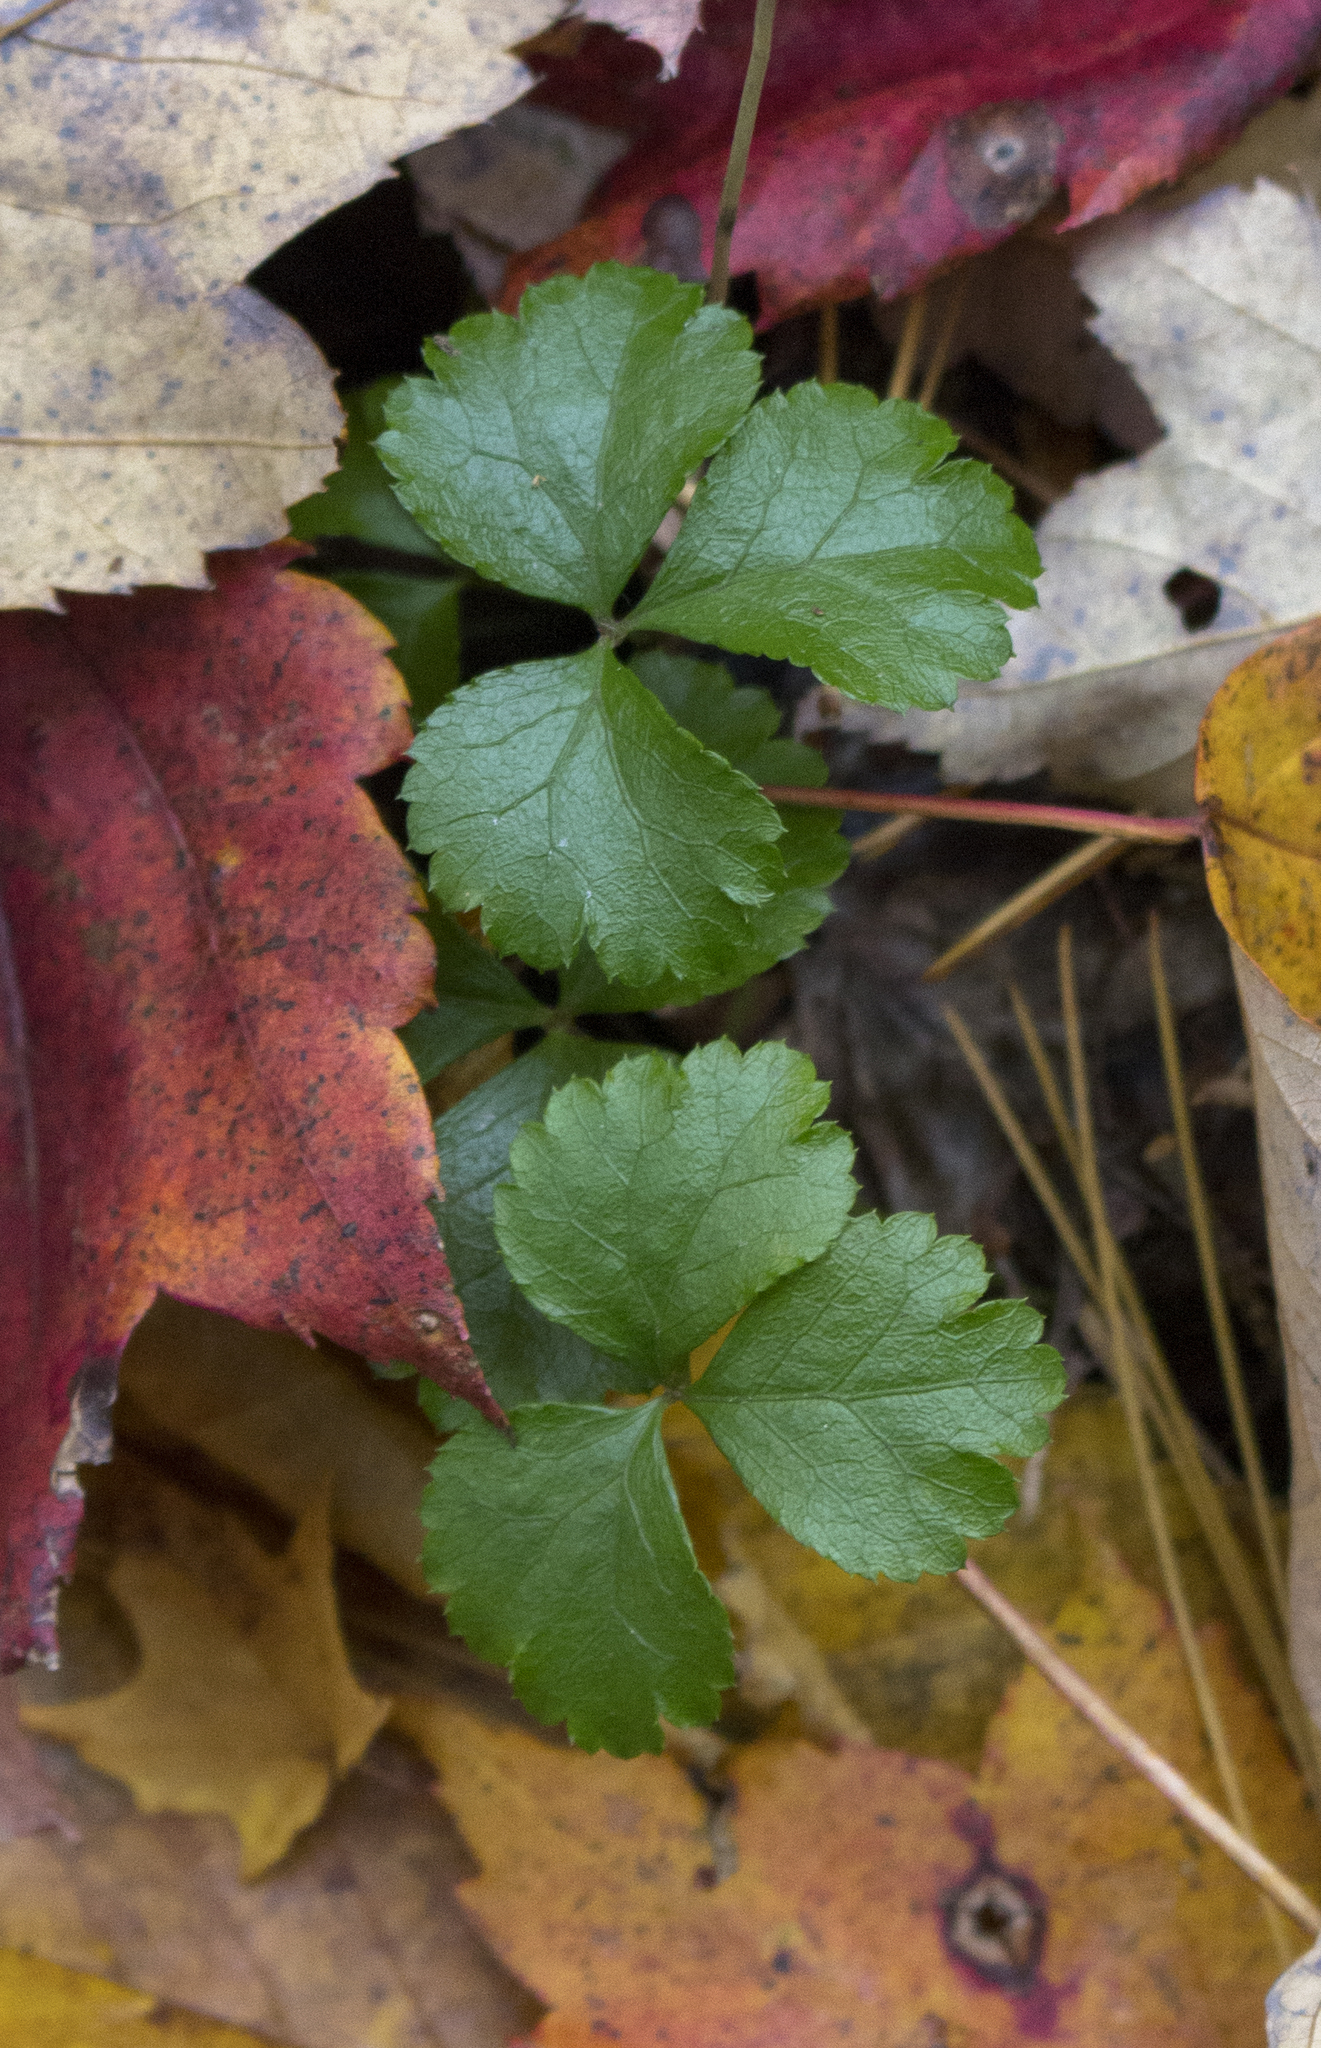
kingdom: Plantae
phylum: Tracheophyta
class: Magnoliopsida
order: Ranunculales
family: Ranunculaceae
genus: Coptis
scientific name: Coptis trifolia
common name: Canker-root
